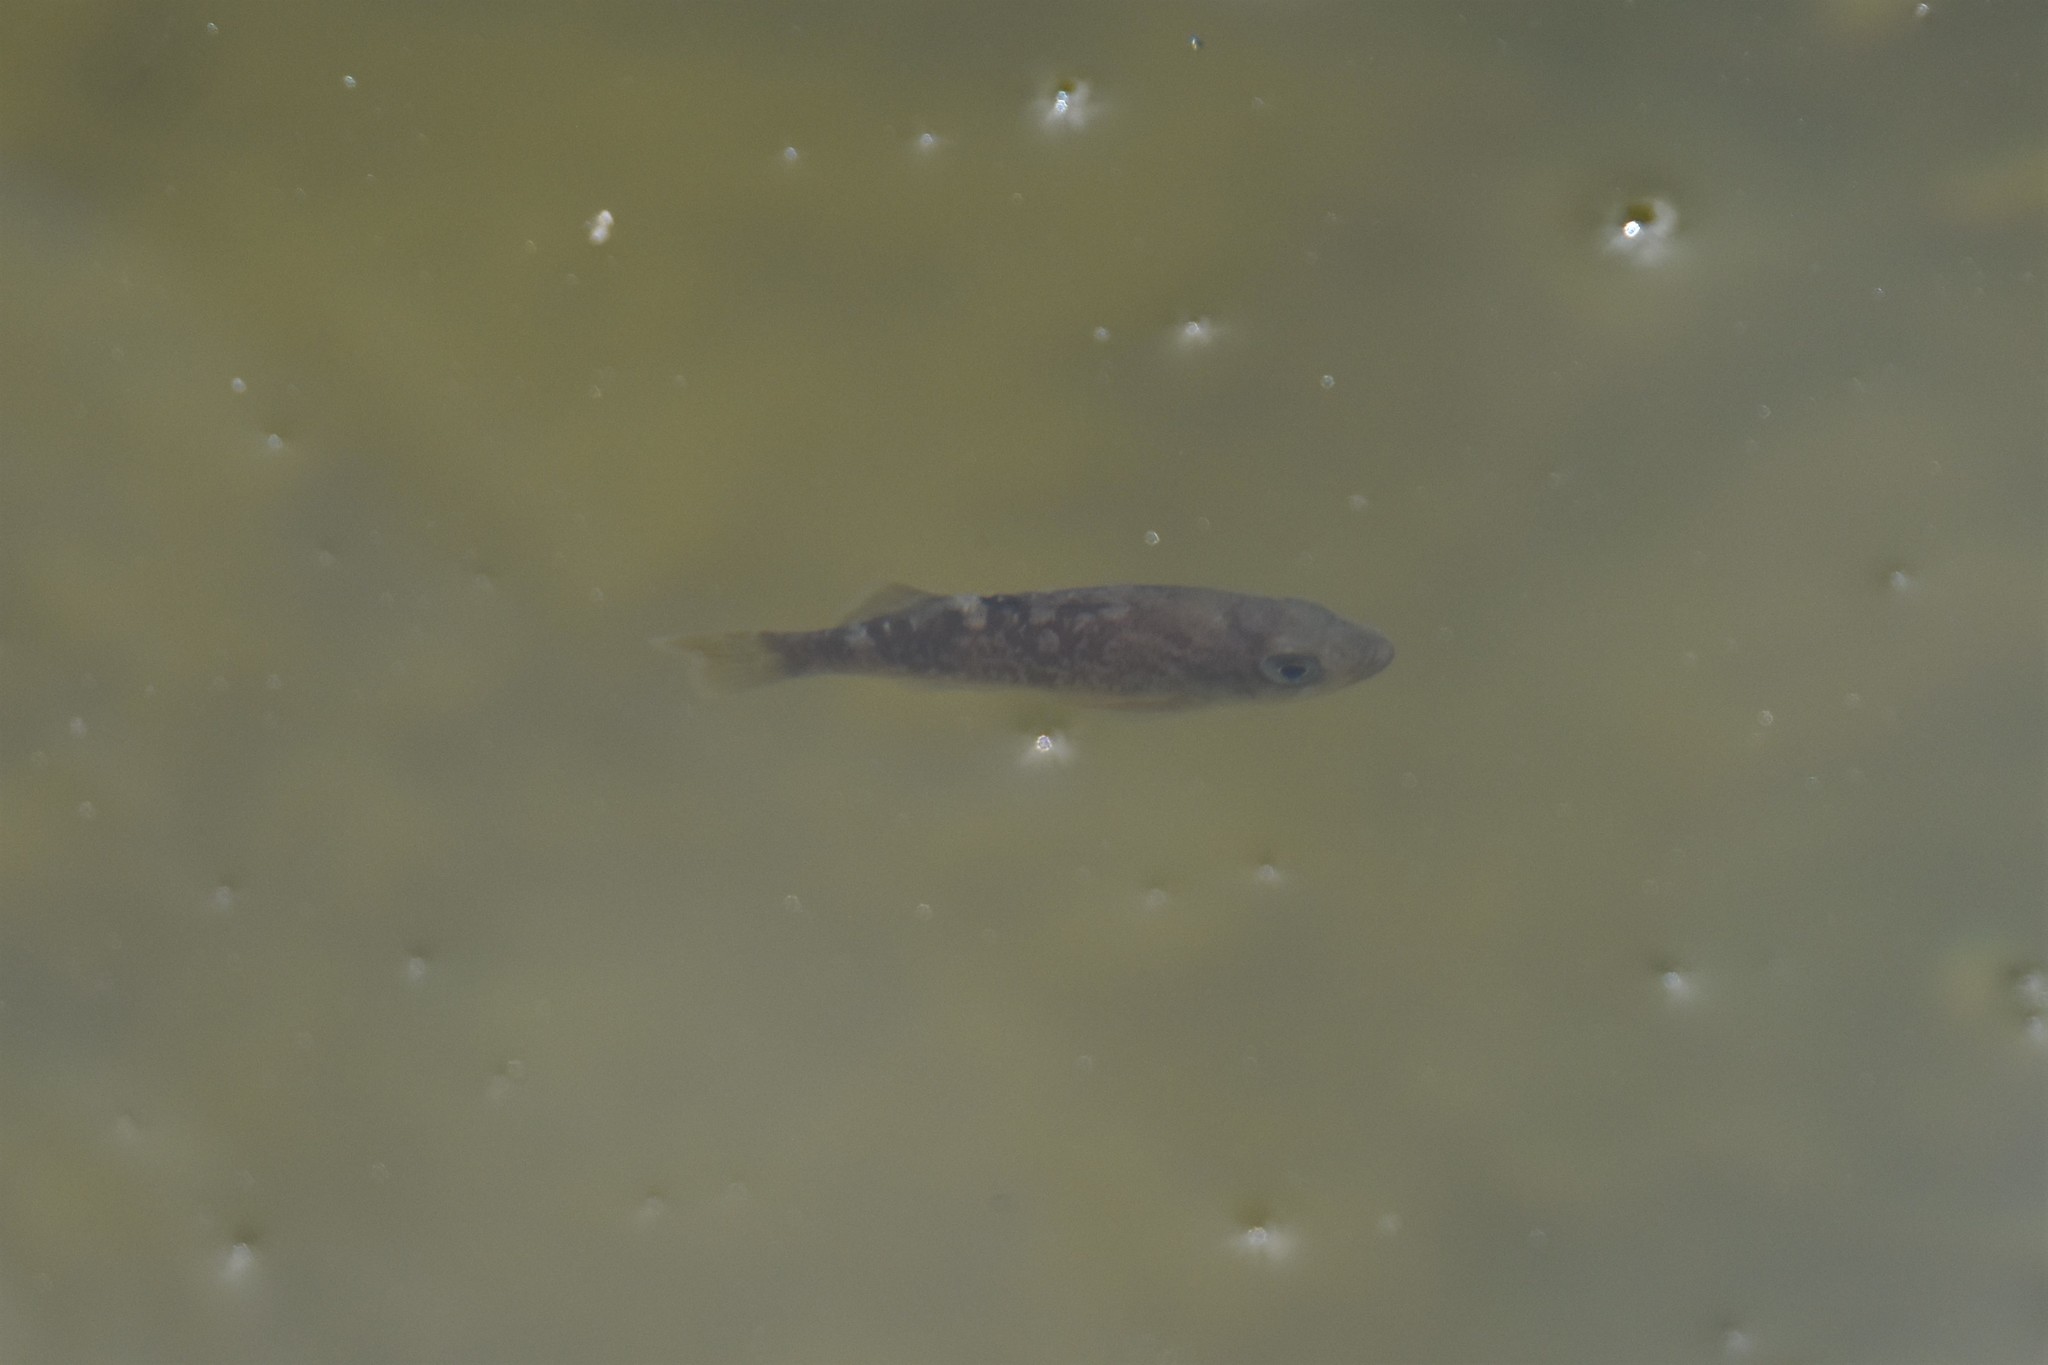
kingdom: Animalia
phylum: Chordata
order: Scorpaeniformes
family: Sebastidae
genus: Sebastes
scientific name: Sebastes melanops
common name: Black rockfish
